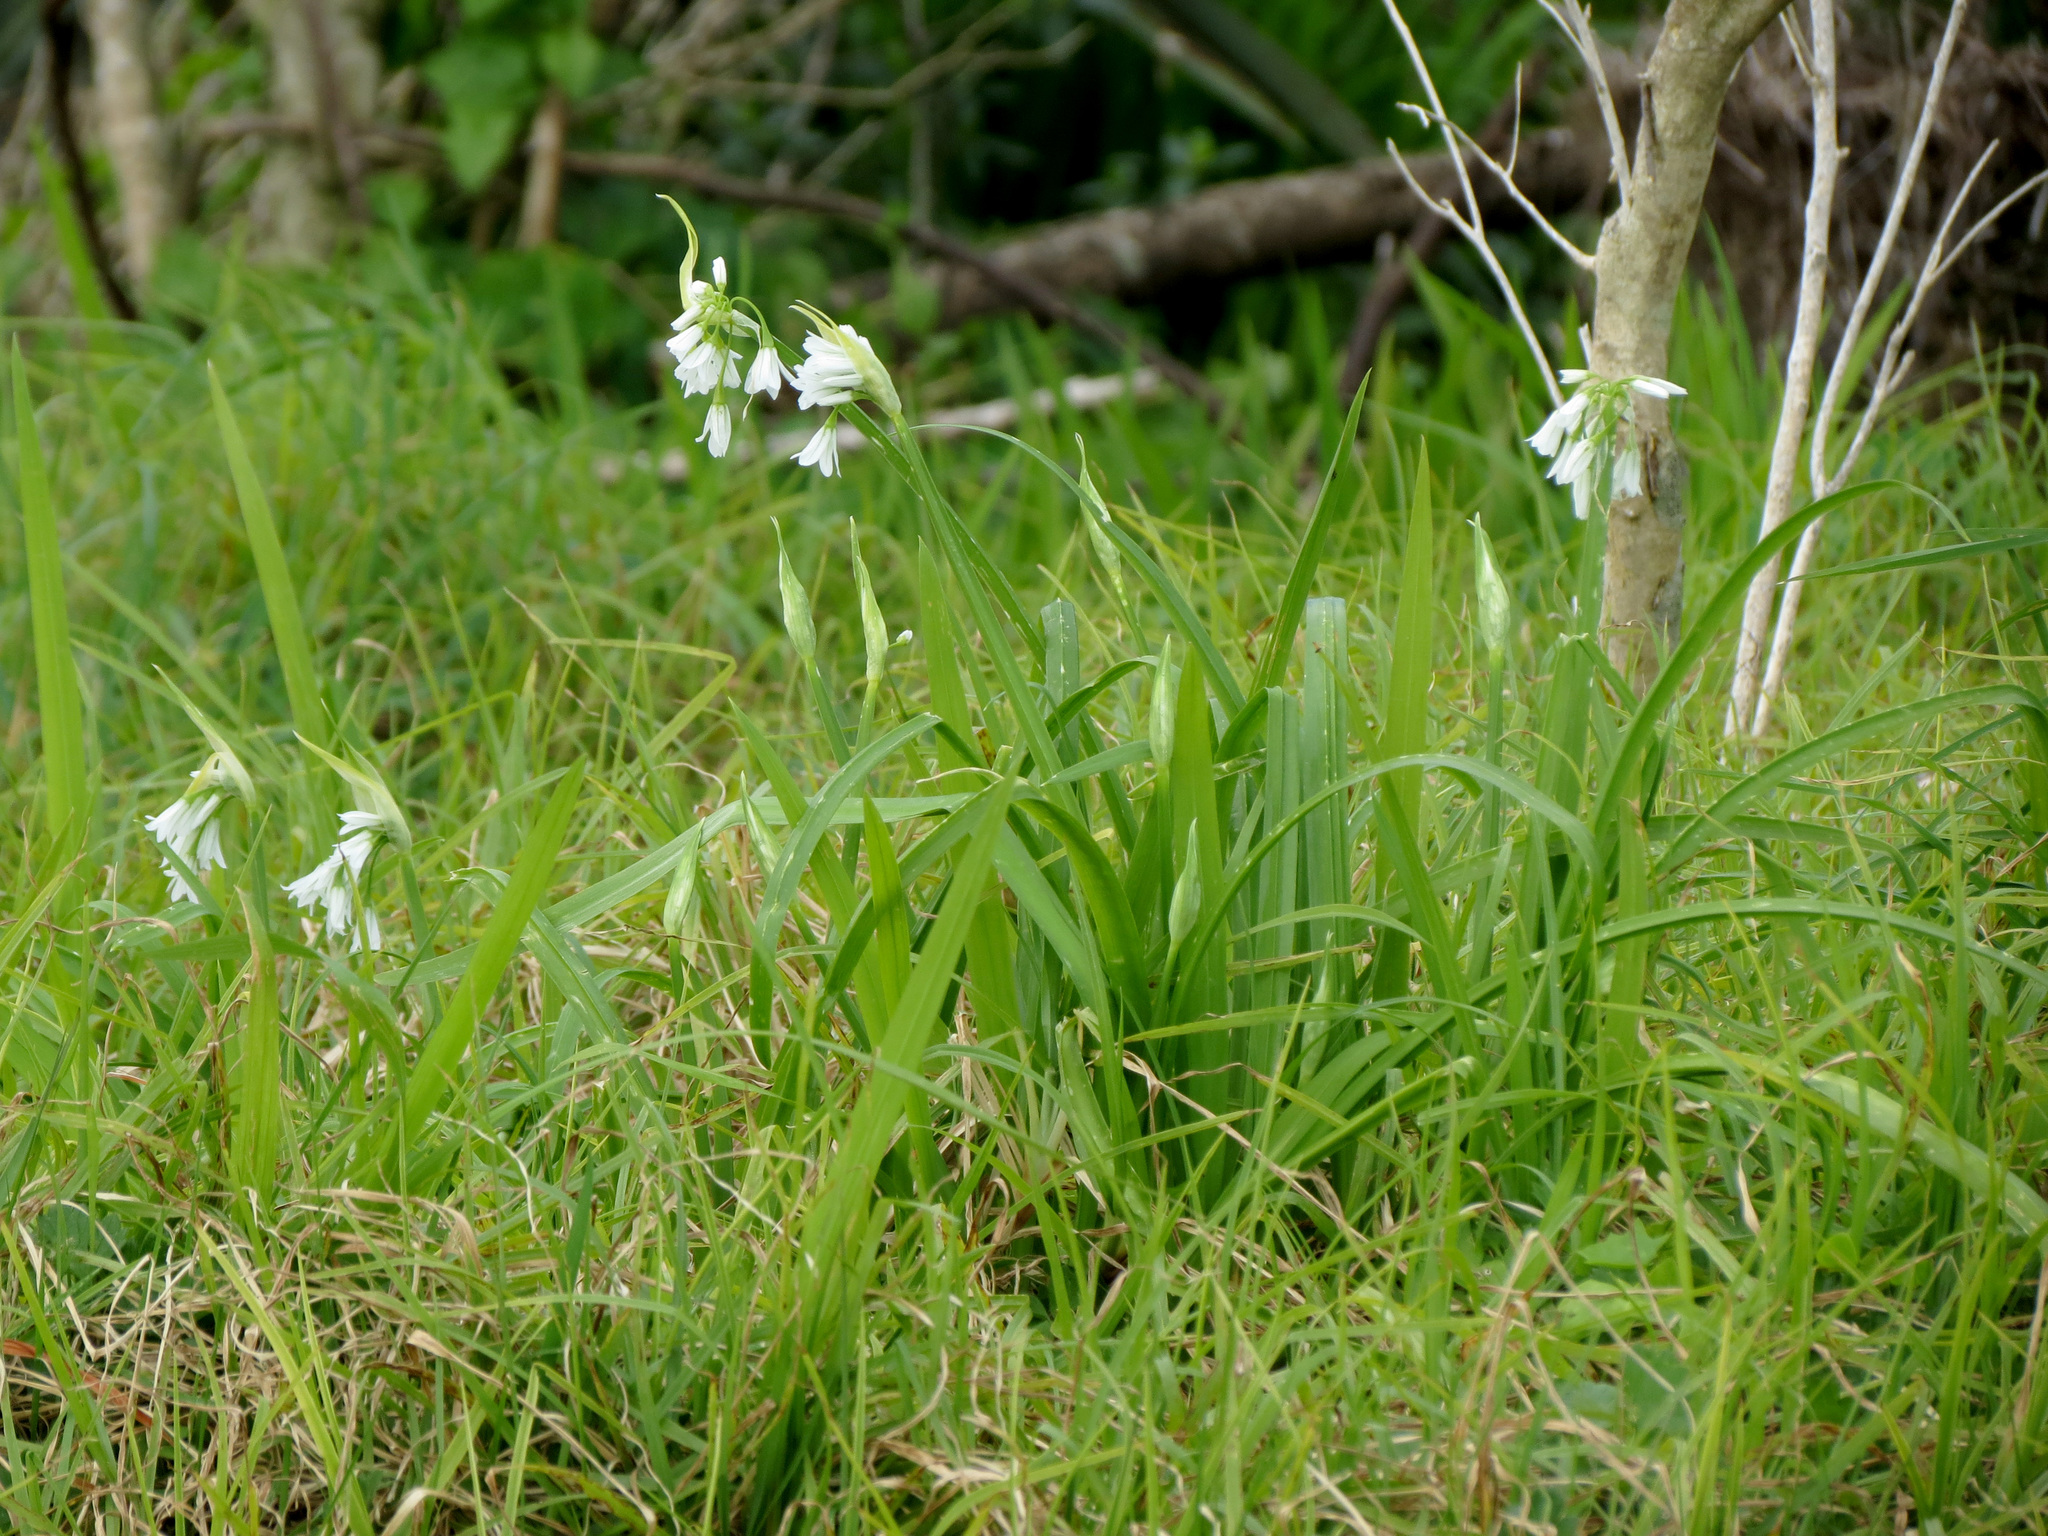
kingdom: Plantae
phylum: Tracheophyta
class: Liliopsida
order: Asparagales
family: Amaryllidaceae
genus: Allium
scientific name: Allium triquetrum
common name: Three-cornered garlic
